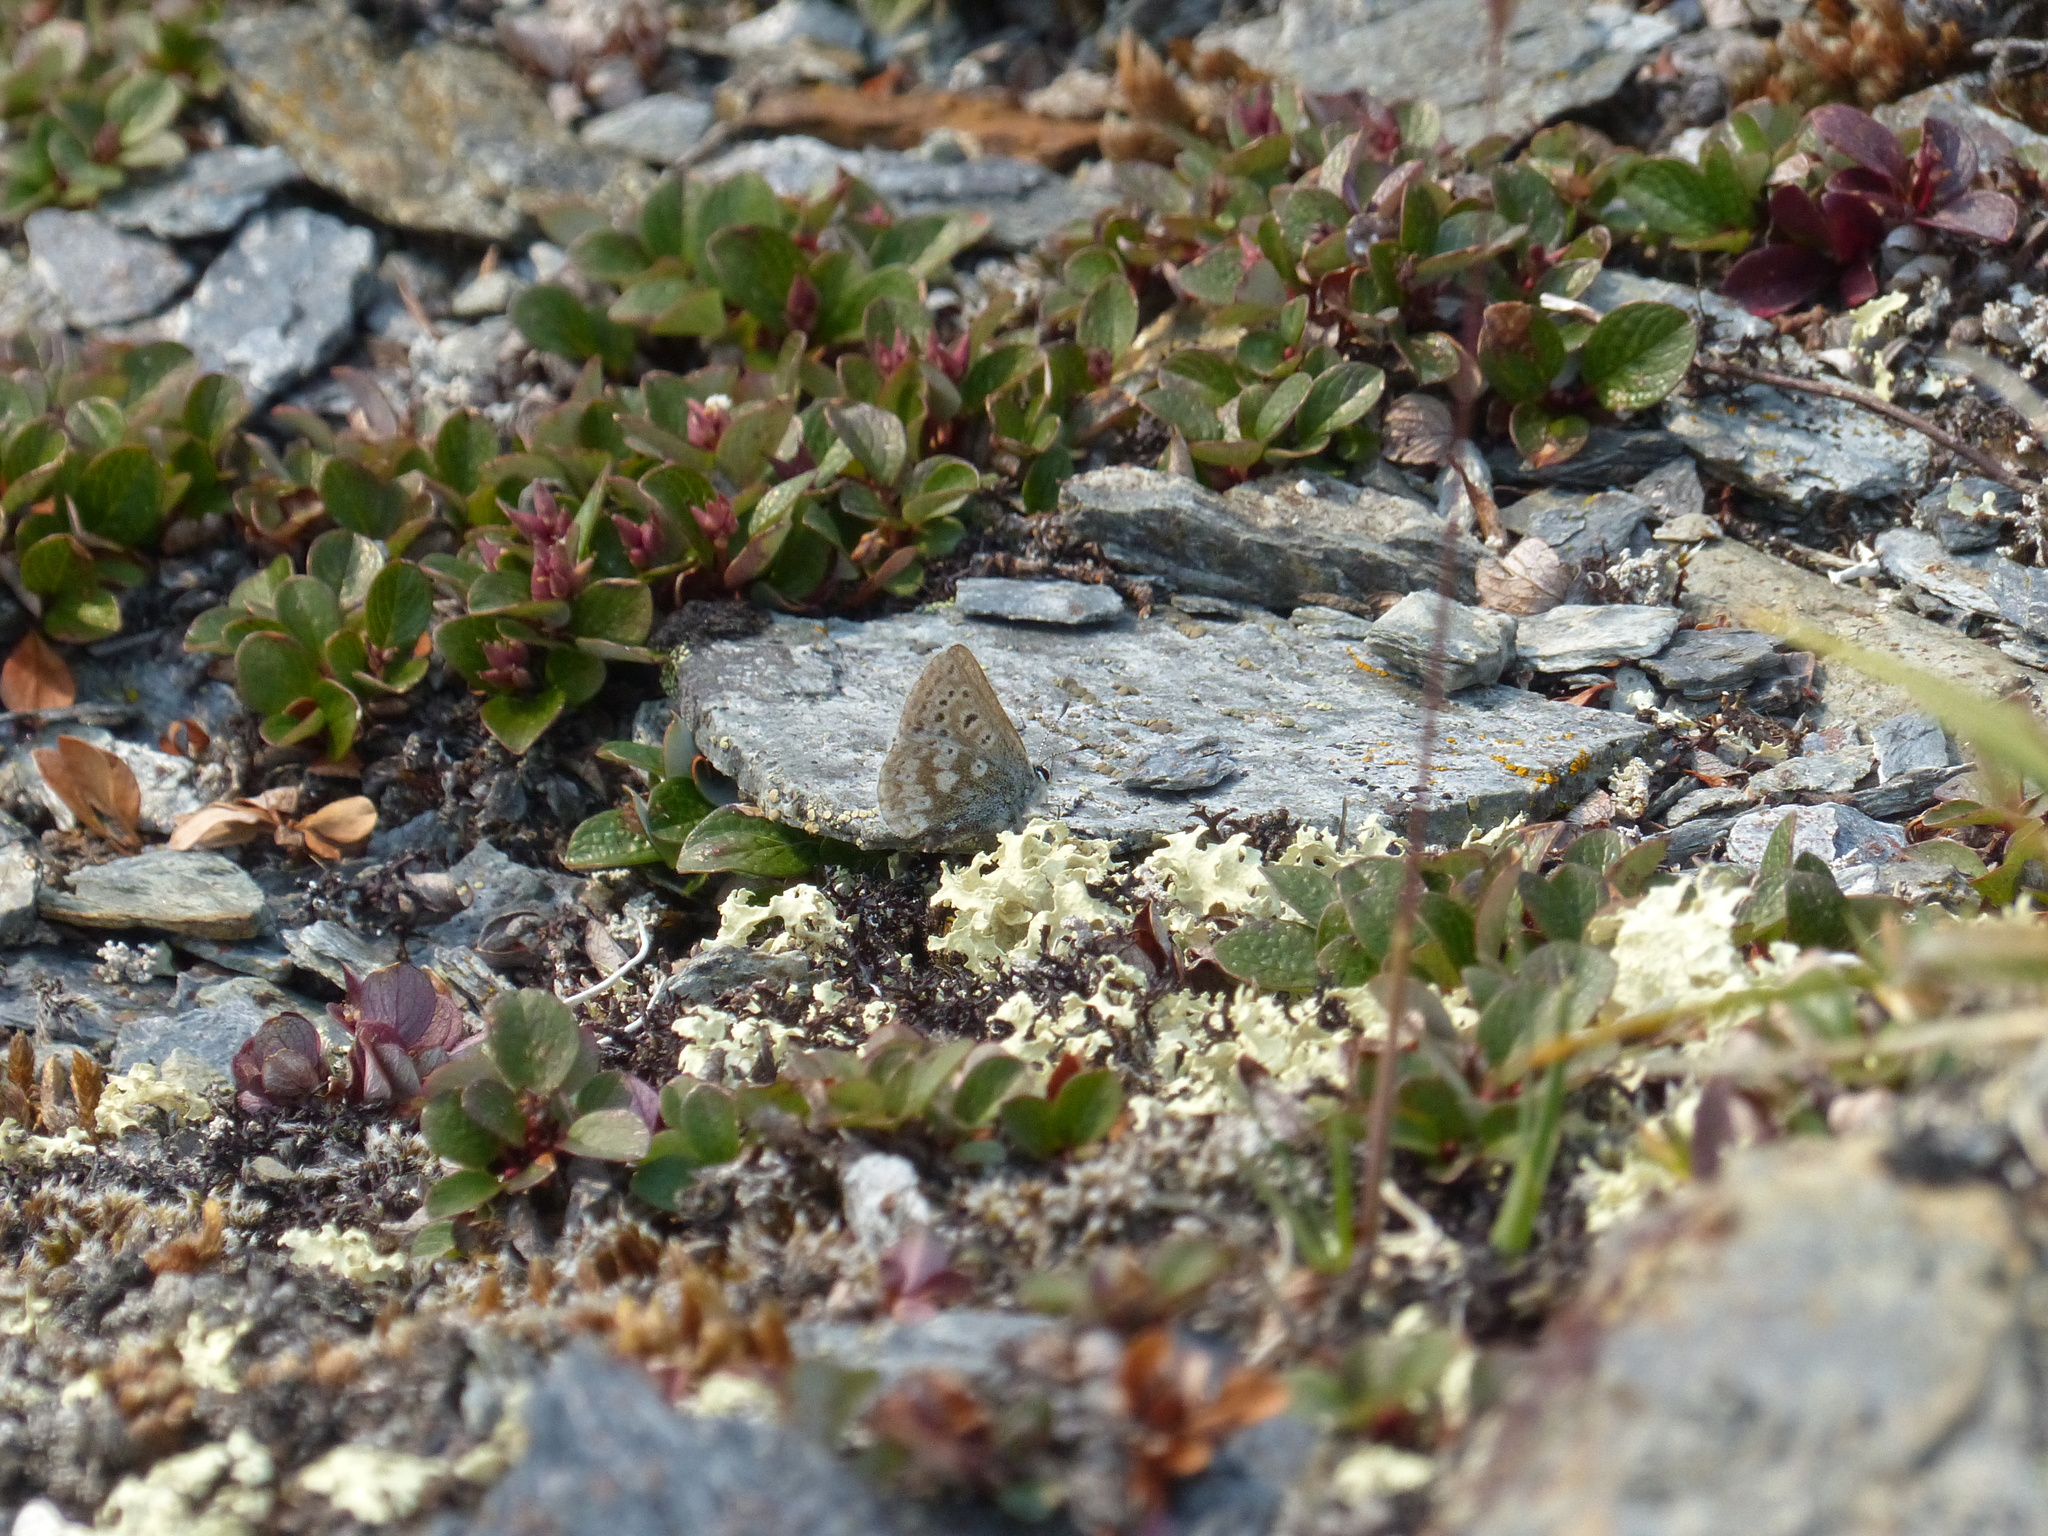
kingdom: Animalia
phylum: Arthropoda
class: Insecta
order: Lepidoptera
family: Lycaenidae
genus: Agriades
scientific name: Agriades glandon
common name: Glandon blue
